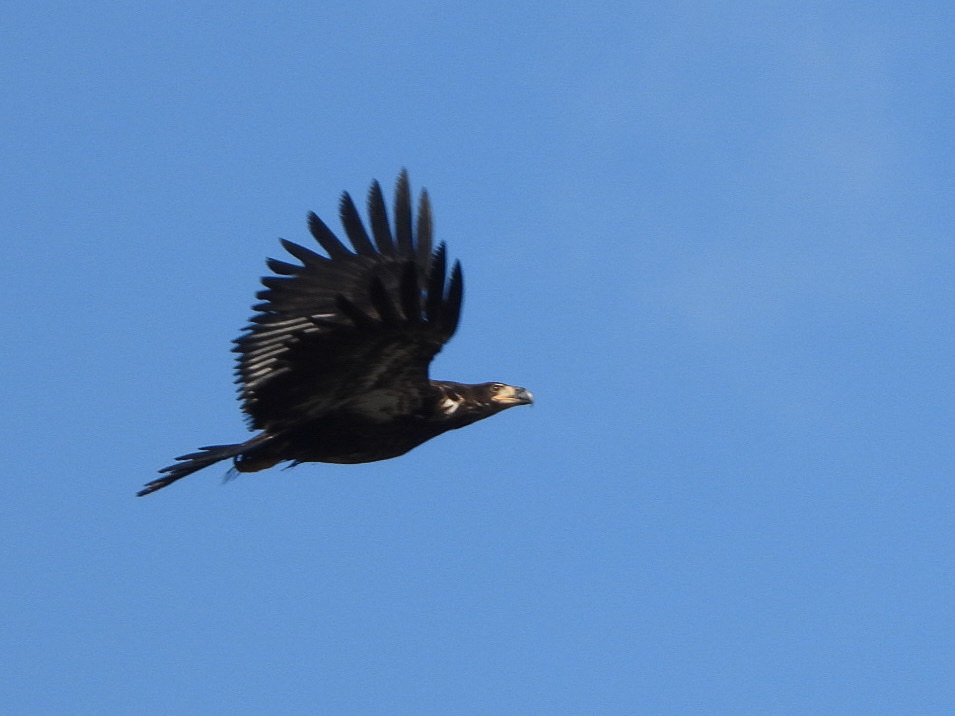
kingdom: Animalia
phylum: Chordata
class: Aves
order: Accipitriformes
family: Accipitridae
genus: Haliaeetus
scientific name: Haliaeetus leucocephalus
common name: Bald eagle
